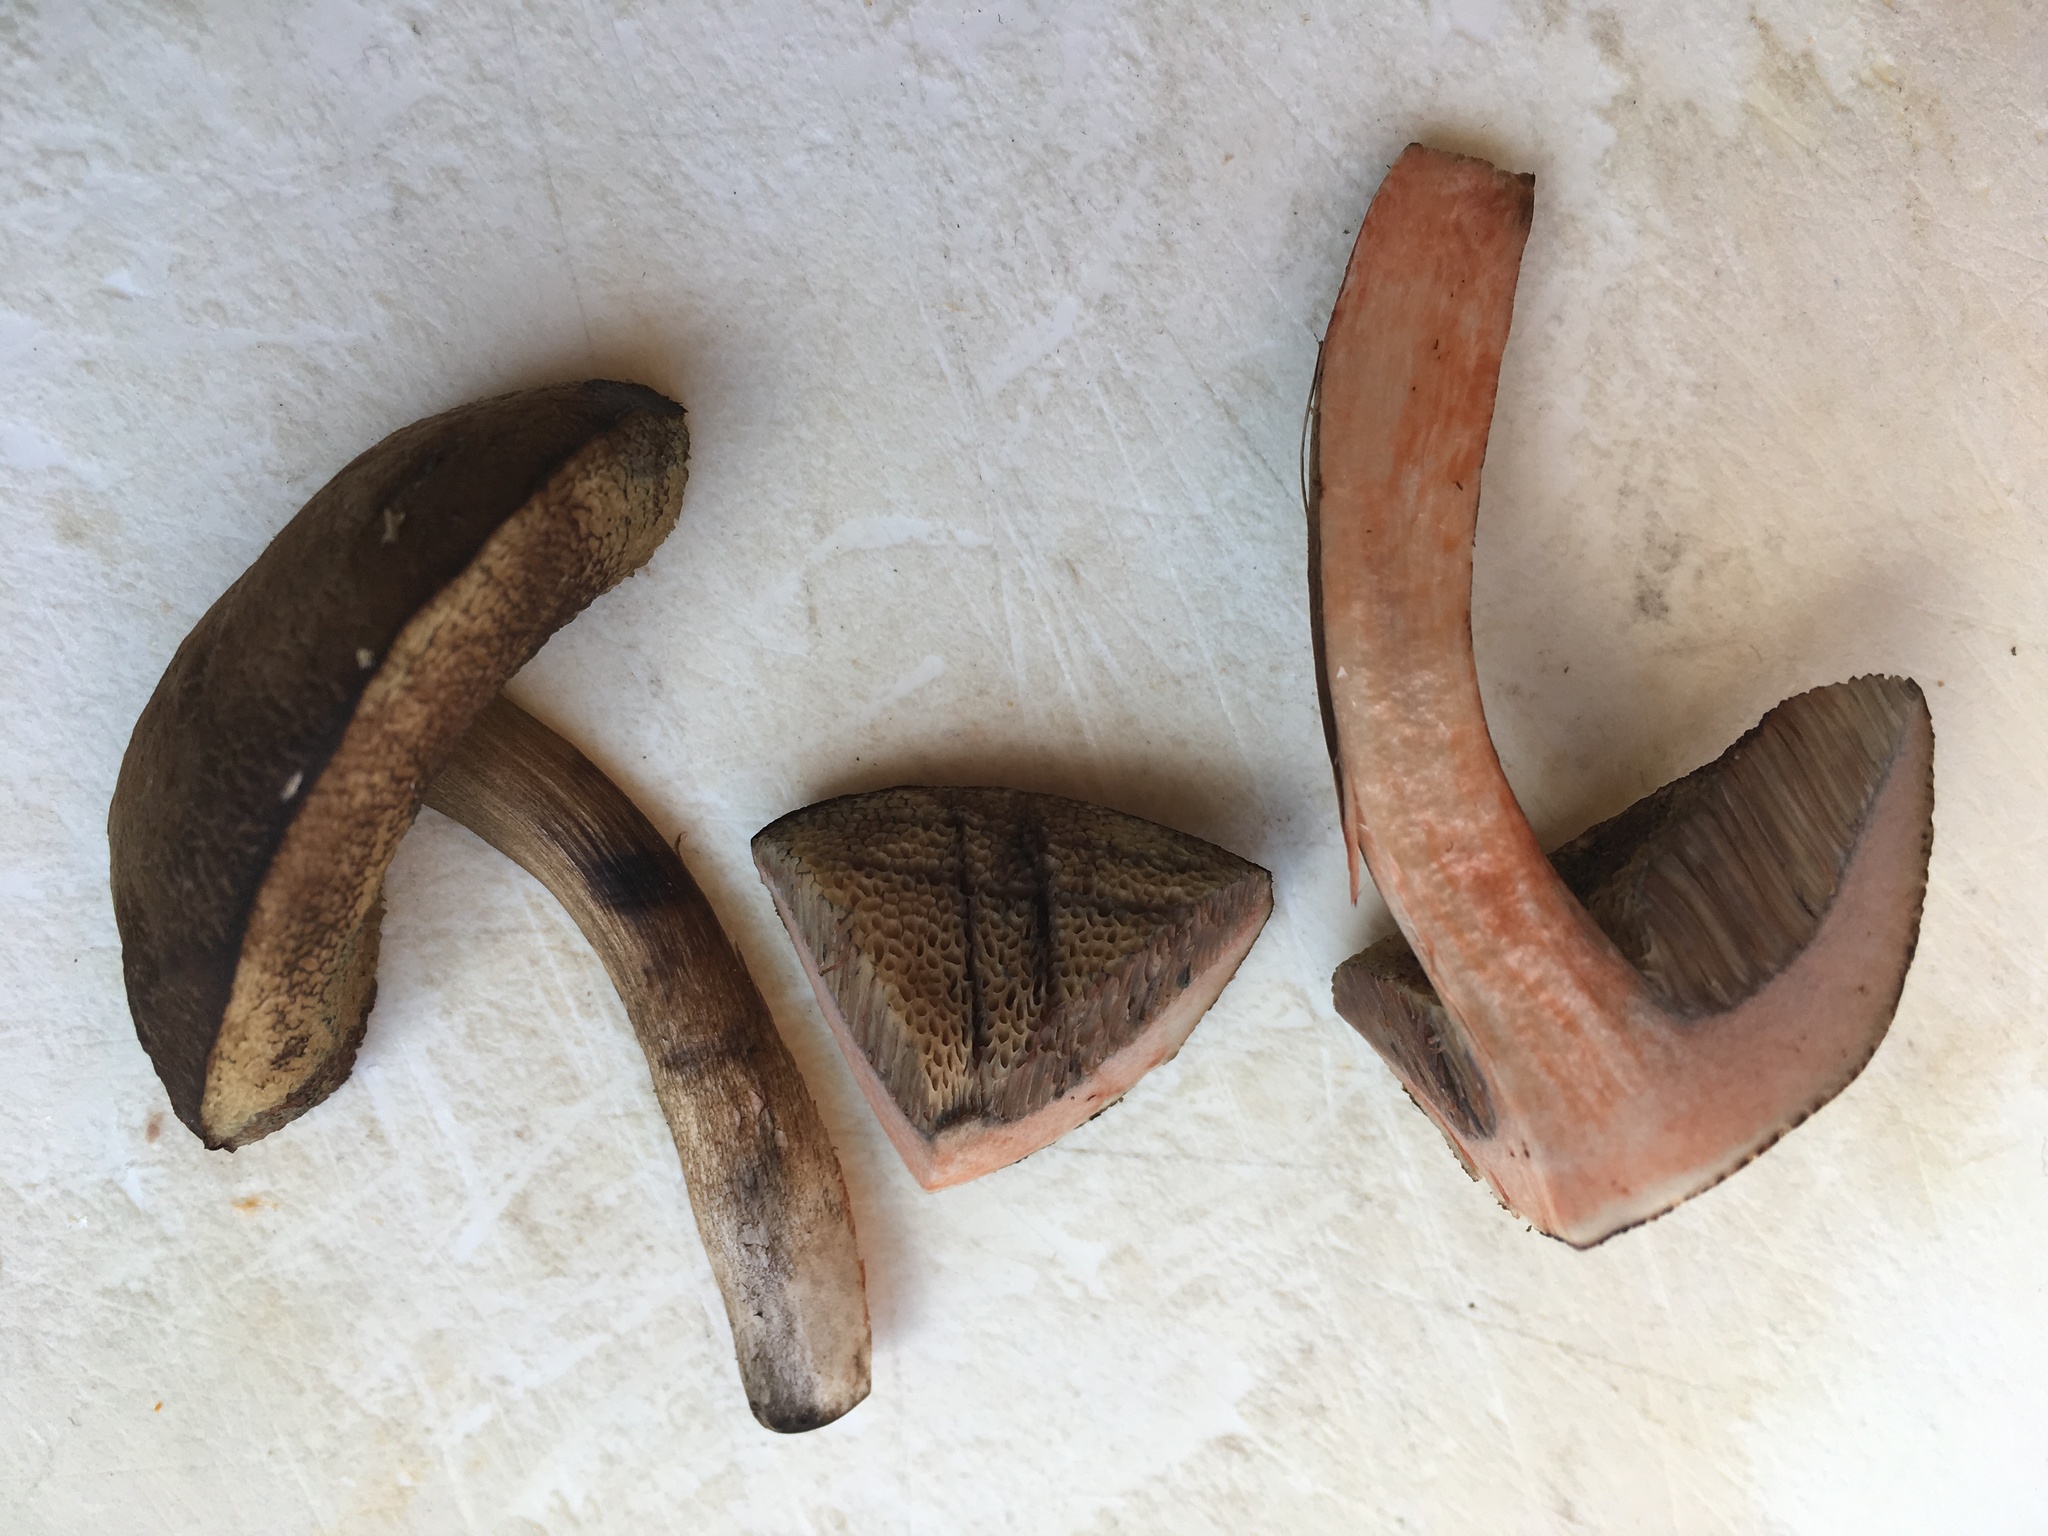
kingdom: Fungi
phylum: Basidiomycota
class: Agaricomycetes
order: Boletales
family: Boletaceae
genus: Porphyrellus
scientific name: Porphyrellus sordidus
